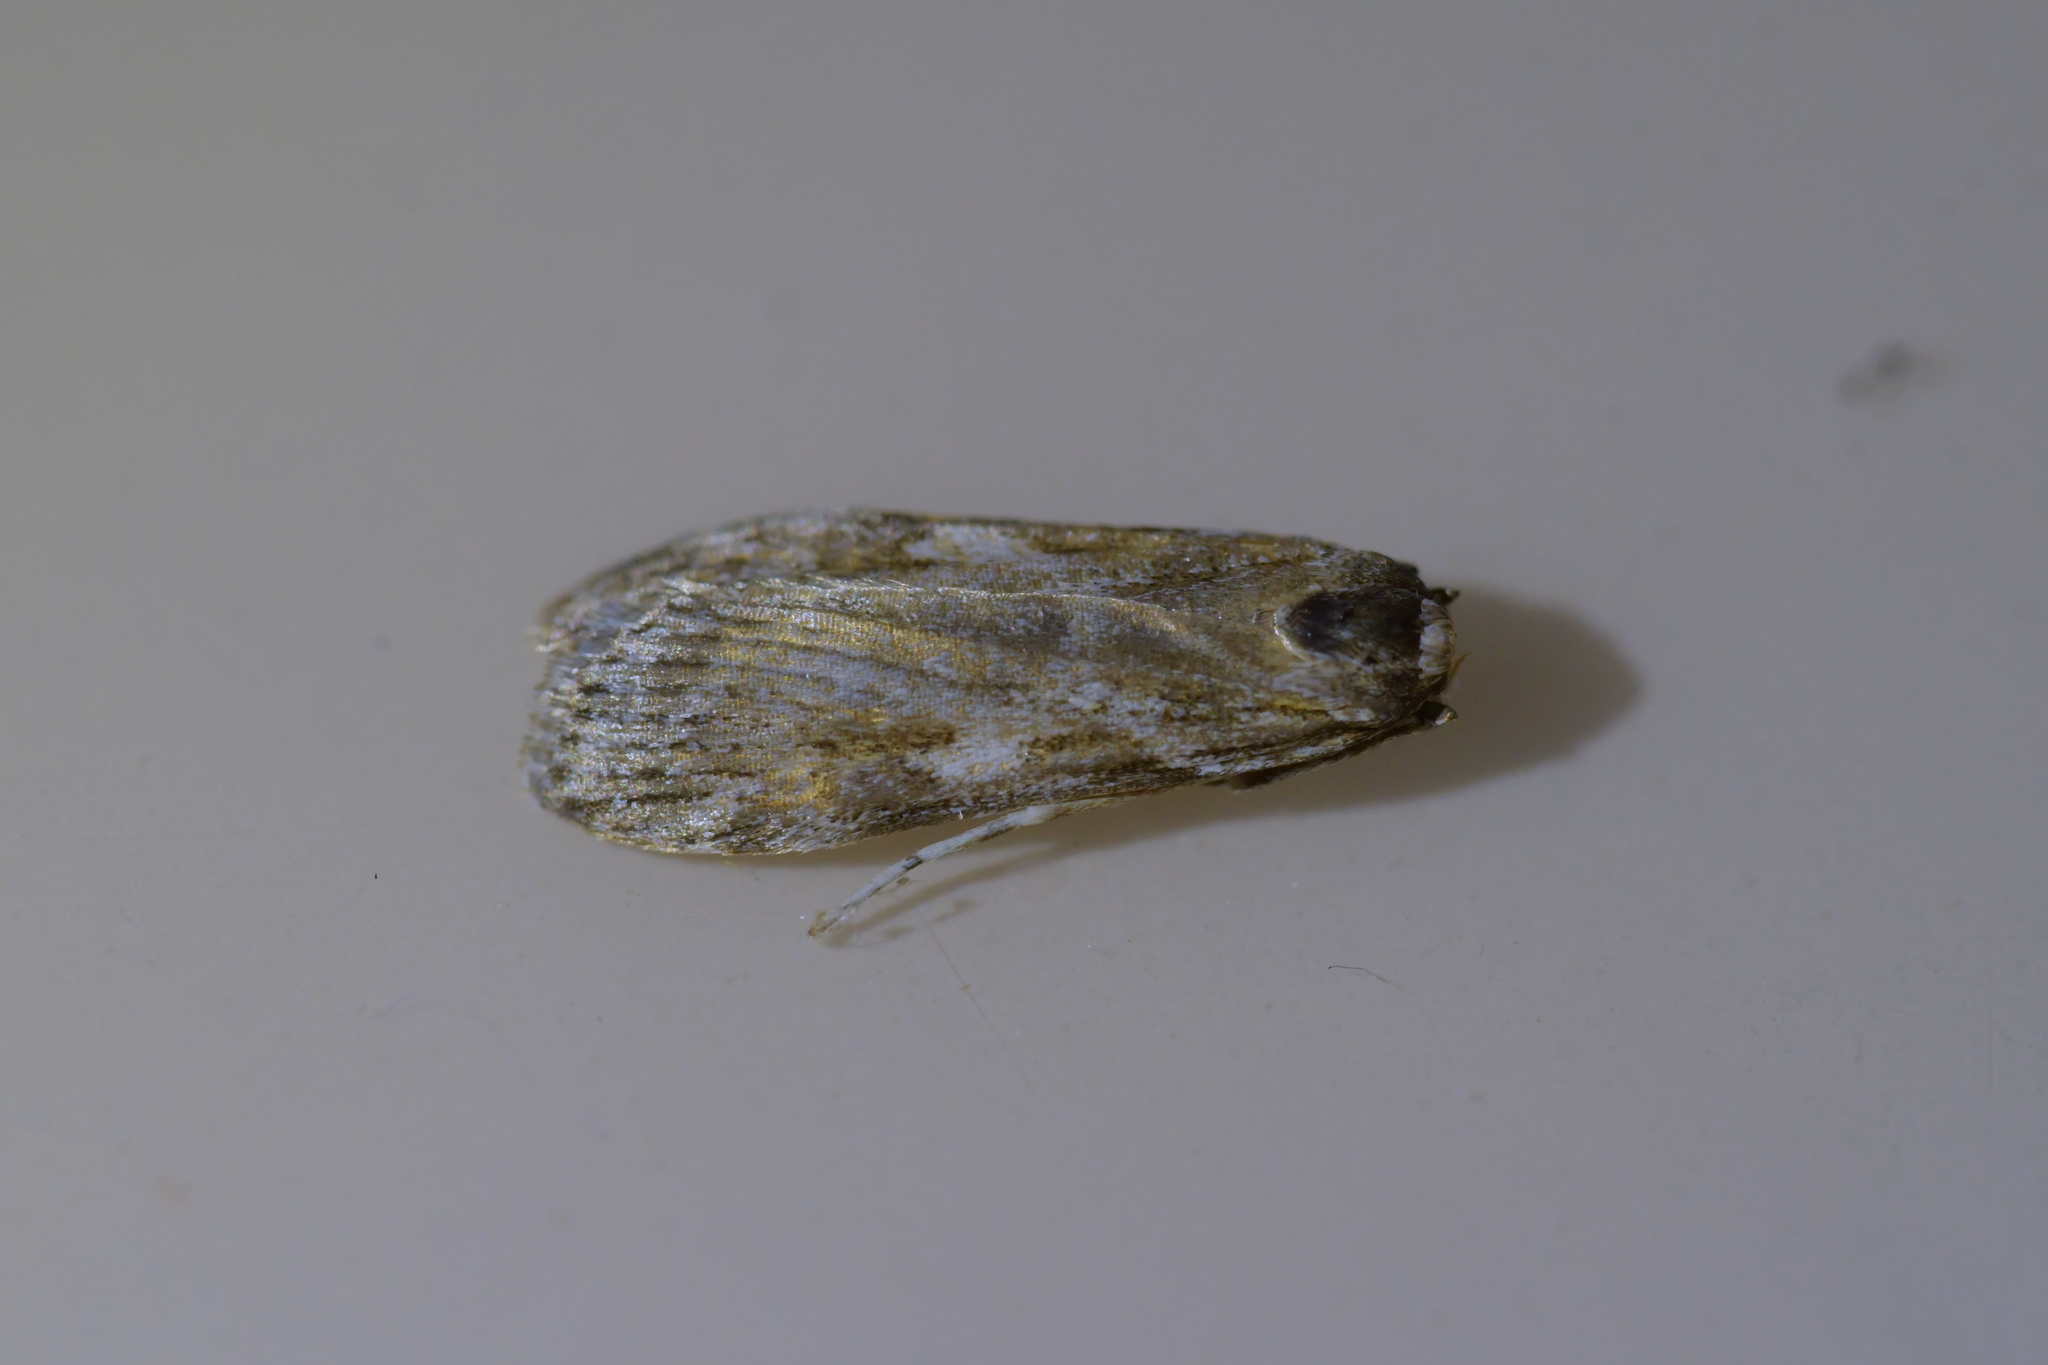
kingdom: Animalia
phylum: Arthropoda
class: Insecta
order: Lepidoptera
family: Crambidae
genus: Scoparia
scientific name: Scoparia halopis
